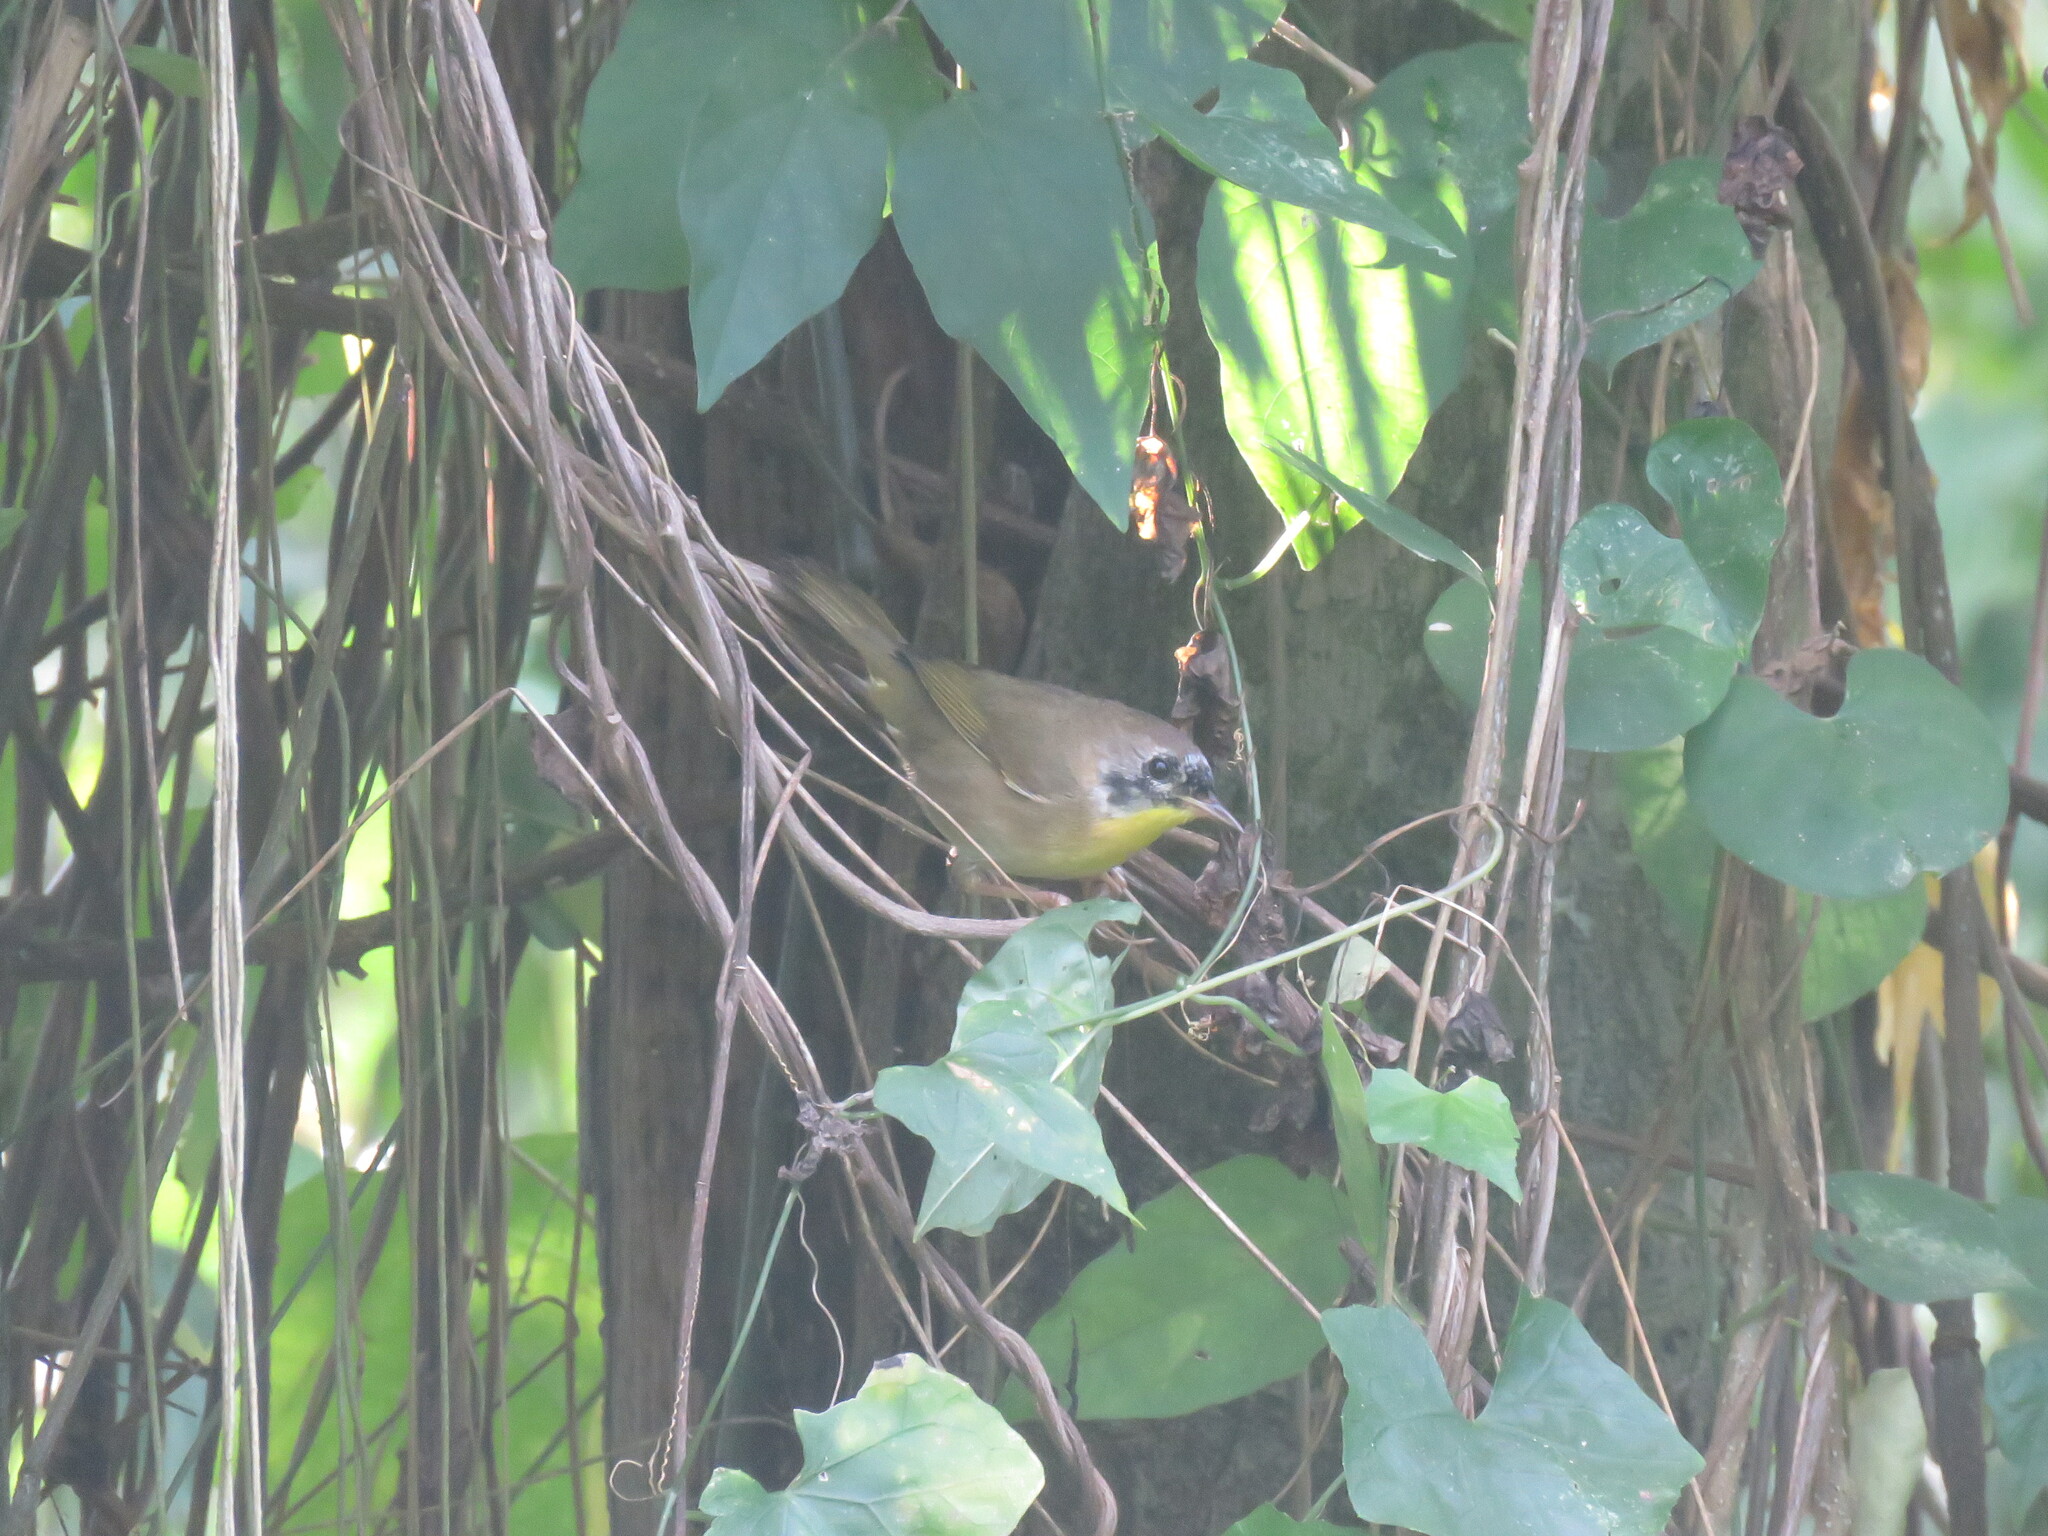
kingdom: Animalia
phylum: Chordata
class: Aves
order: Passeriformes
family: Parulidae
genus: Geothlypis
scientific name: Geothlypis trichas
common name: Common yellowthroat
